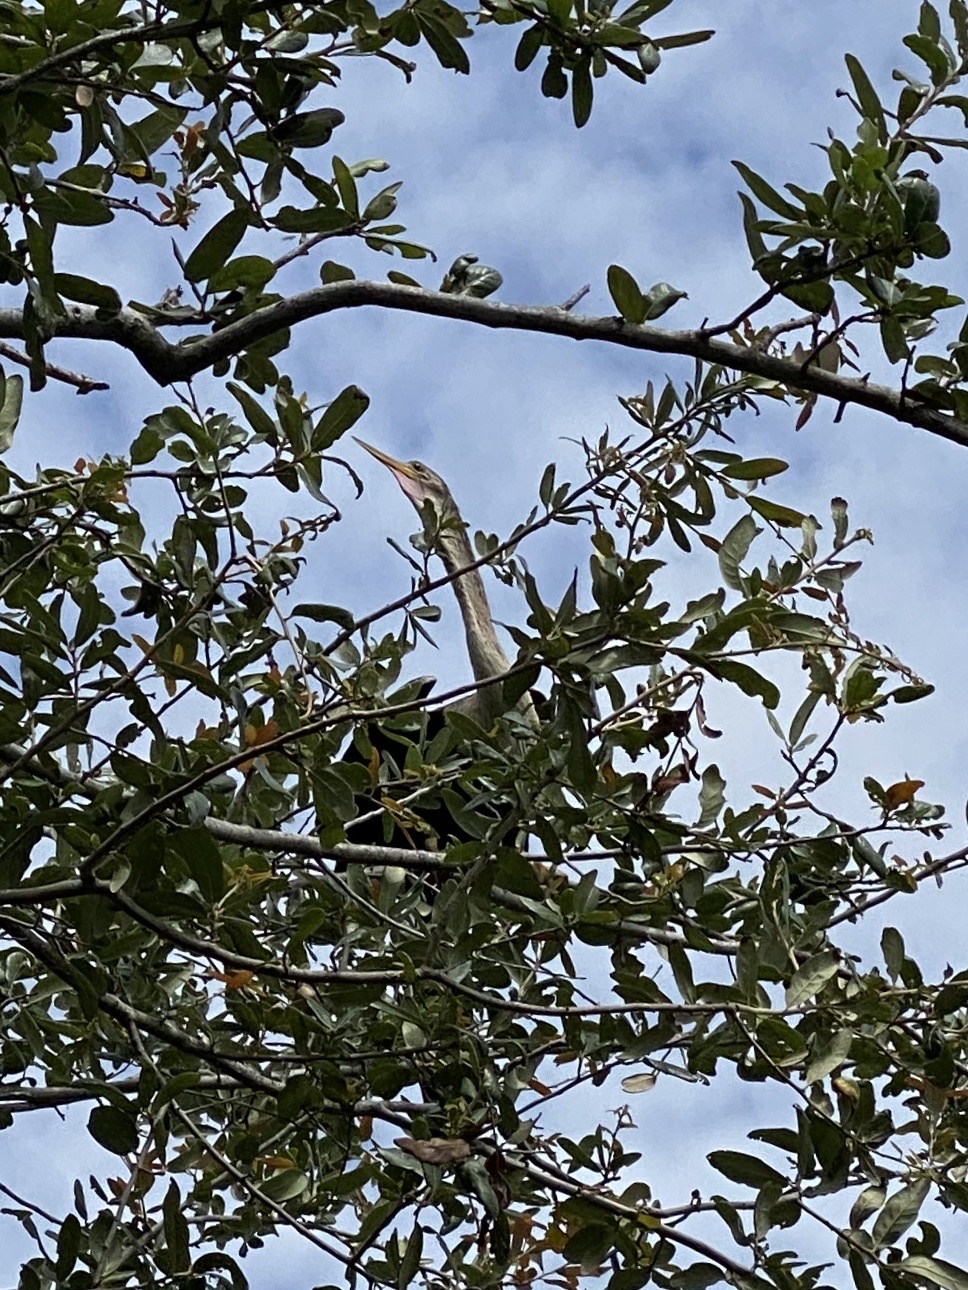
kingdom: Animalia
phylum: Chordata
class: Aves
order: Suliformes
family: Anhingidae
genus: Anhinga
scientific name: Anhinga anhinga
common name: Anhinga
